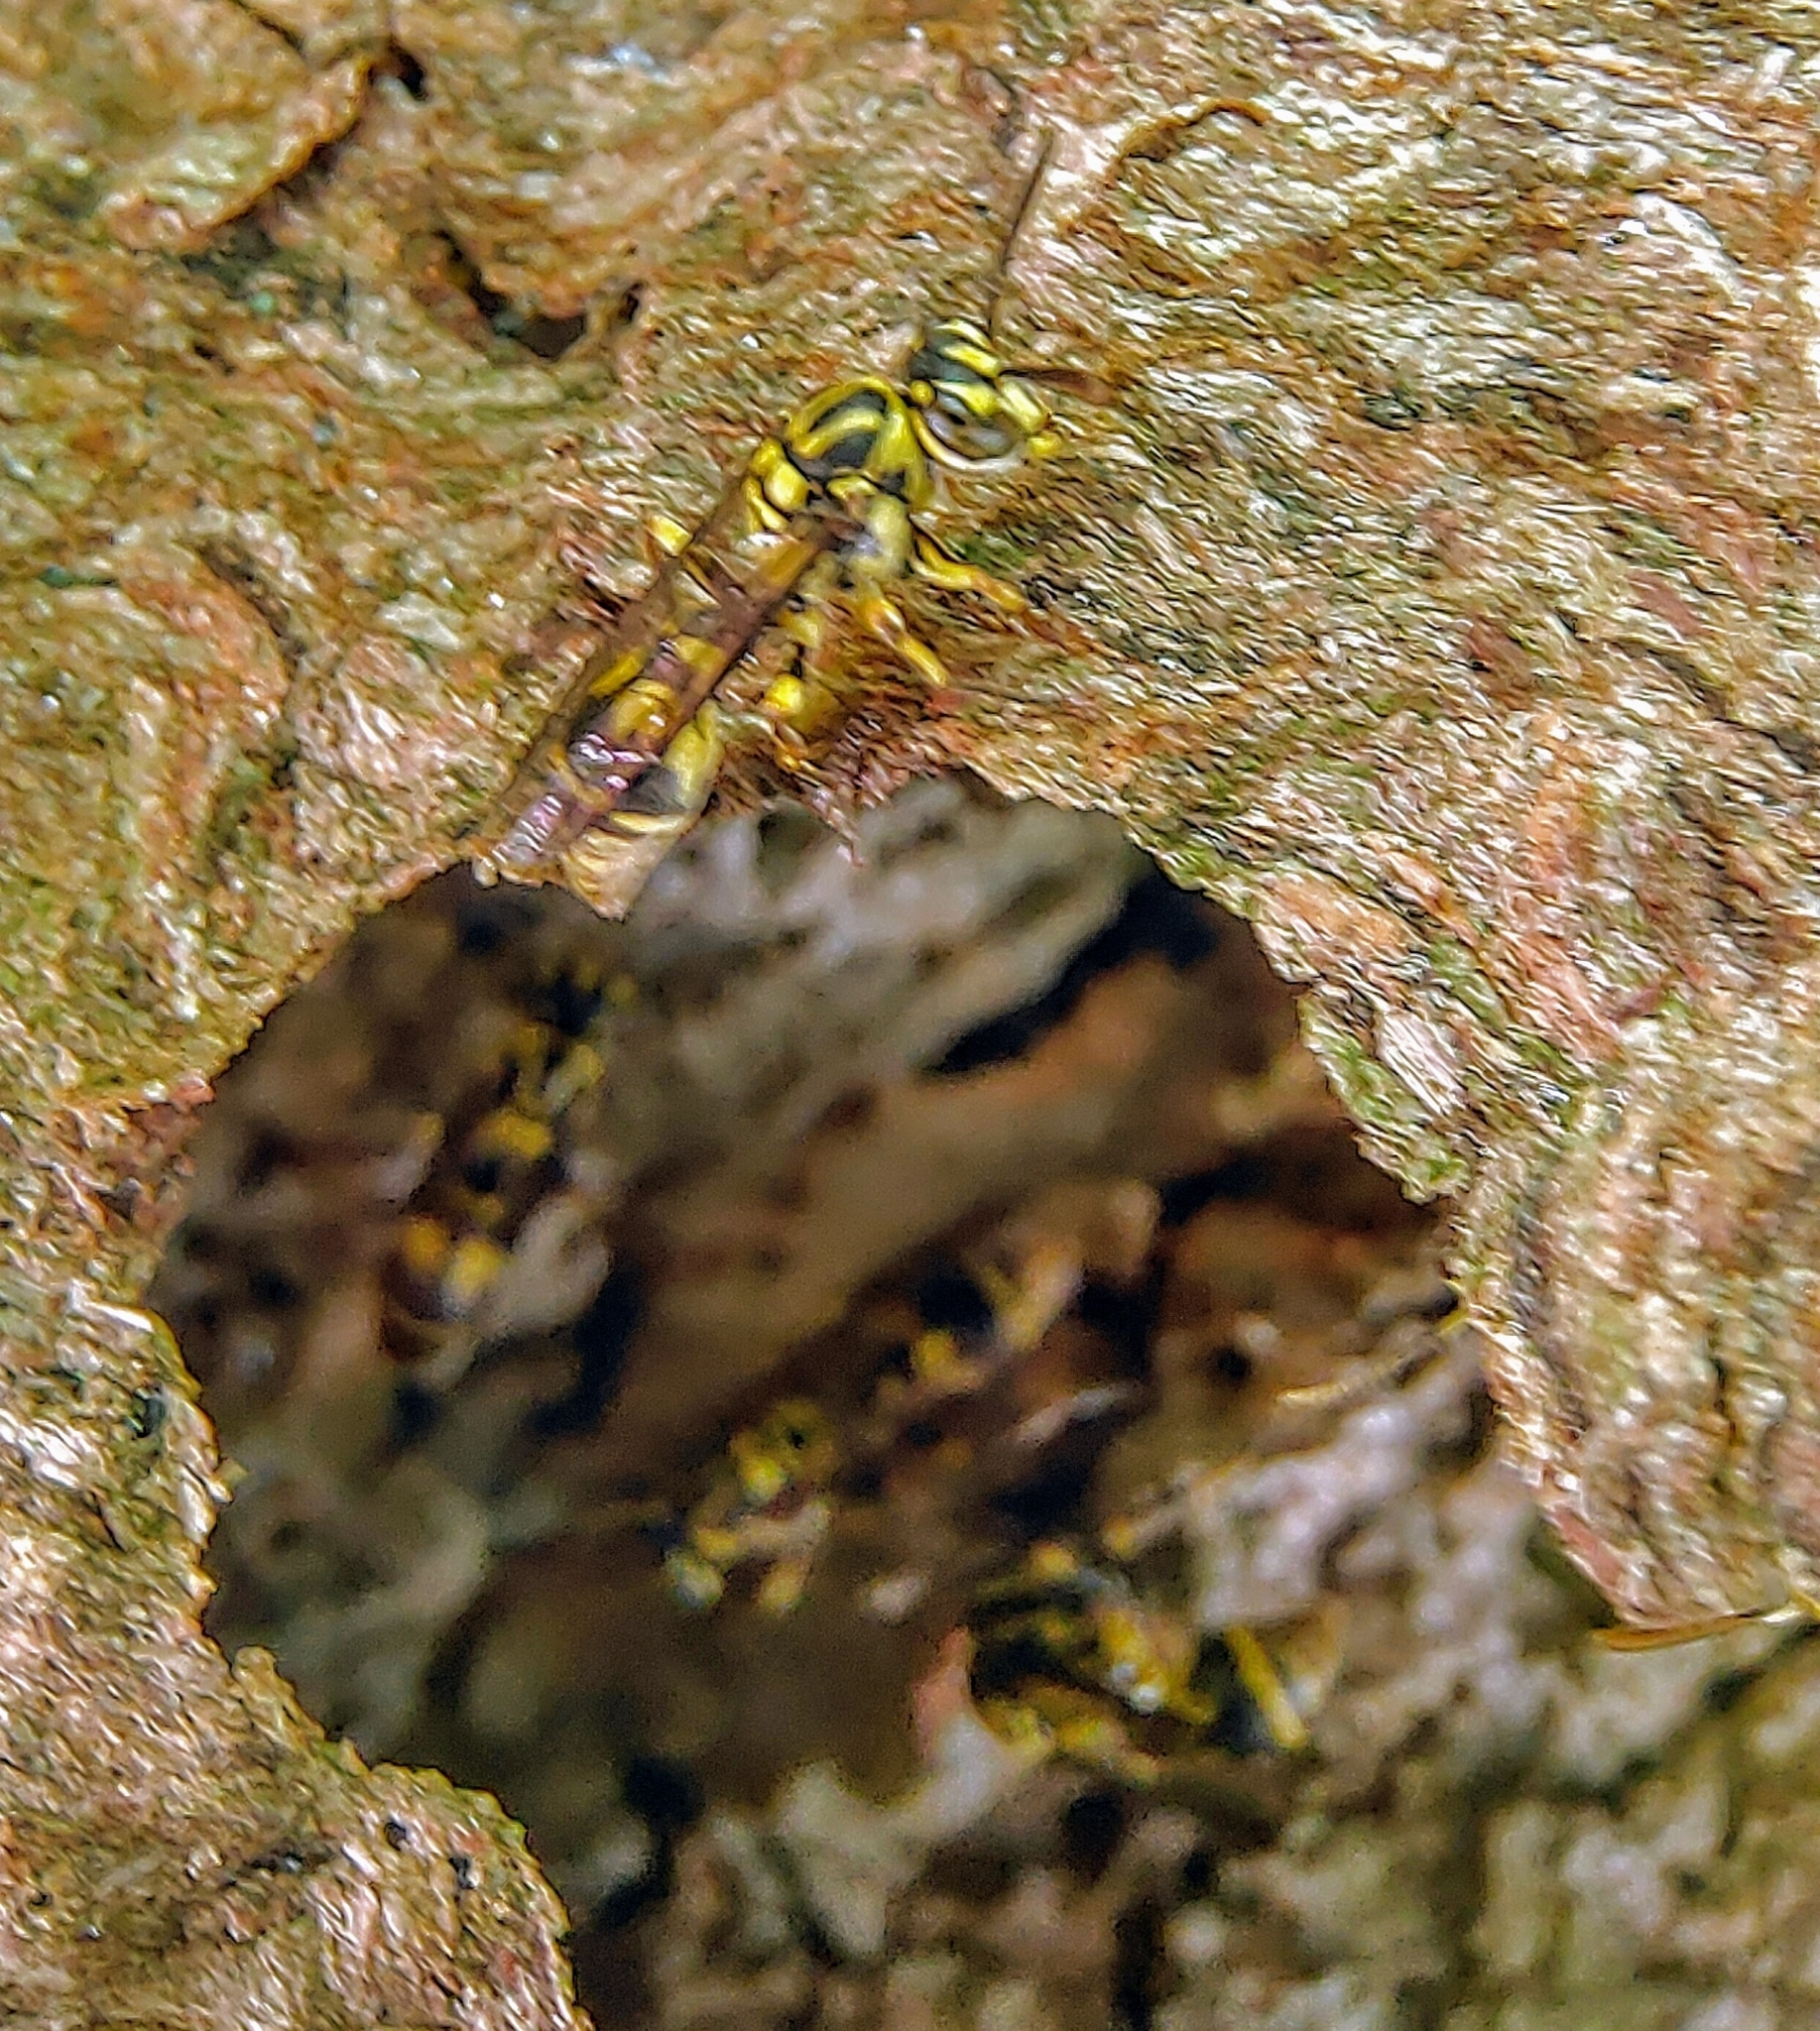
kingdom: Animalia
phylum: Arthropoda
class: Insecta
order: Hymenoptera
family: Vespidae
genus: Ropalidia
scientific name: Ropalidia flavopicta
